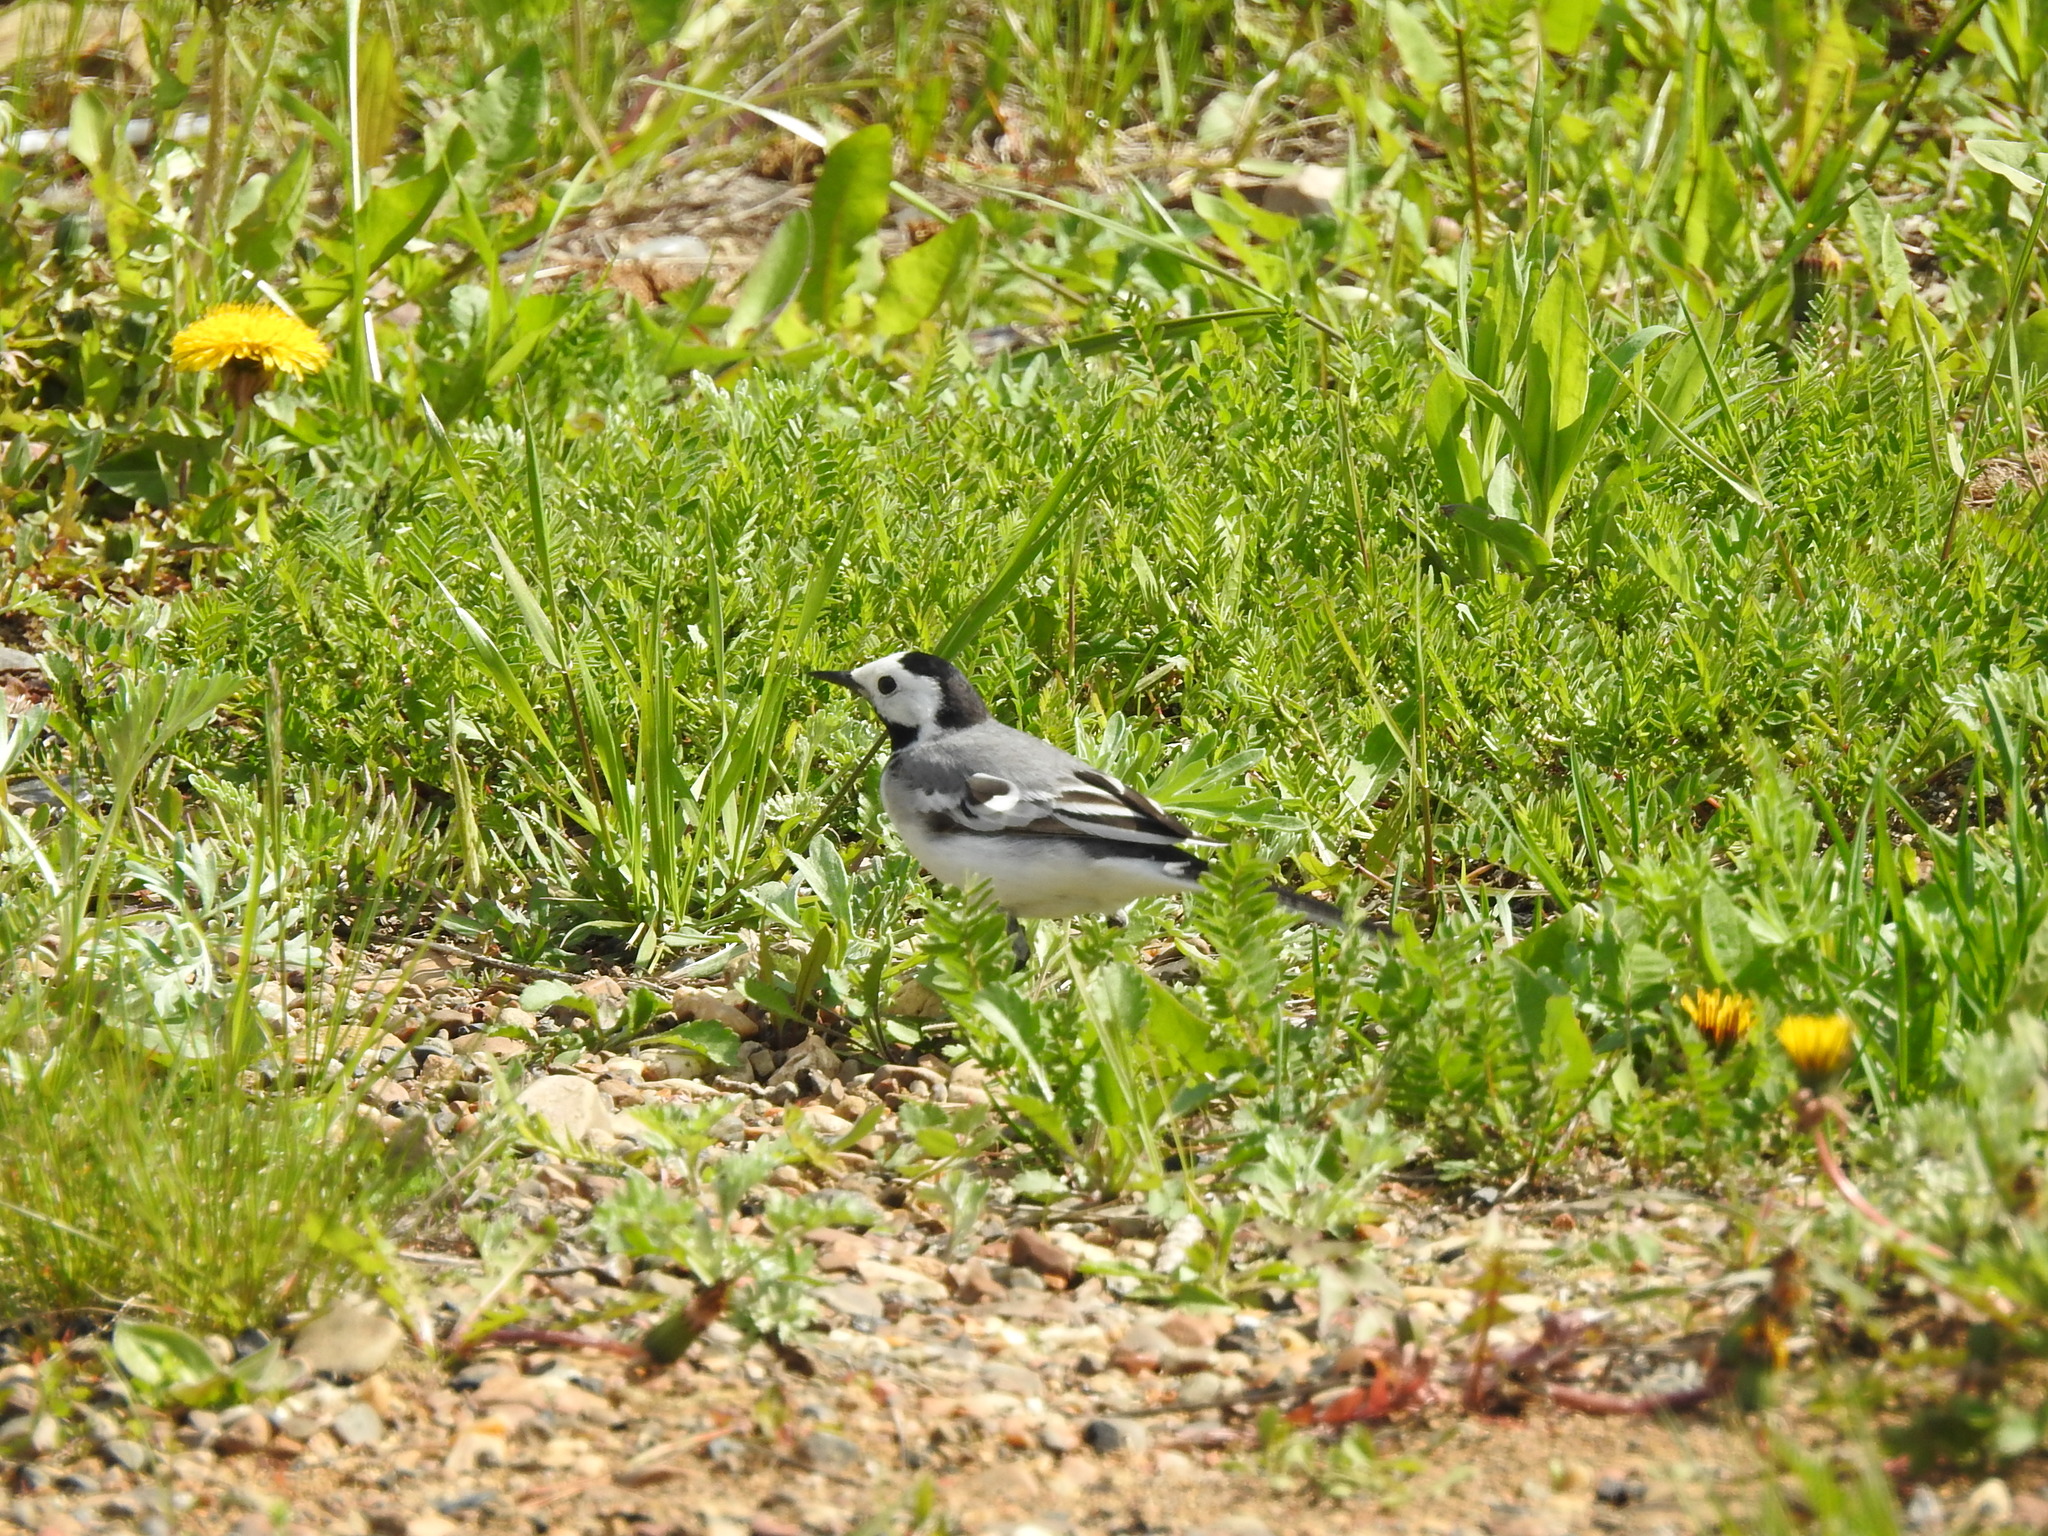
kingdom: Animalia
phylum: Chordata
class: Aves
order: Passeriformes
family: Motacillidae
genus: Motacilla
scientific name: Motacilla alba
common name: White wagtail
